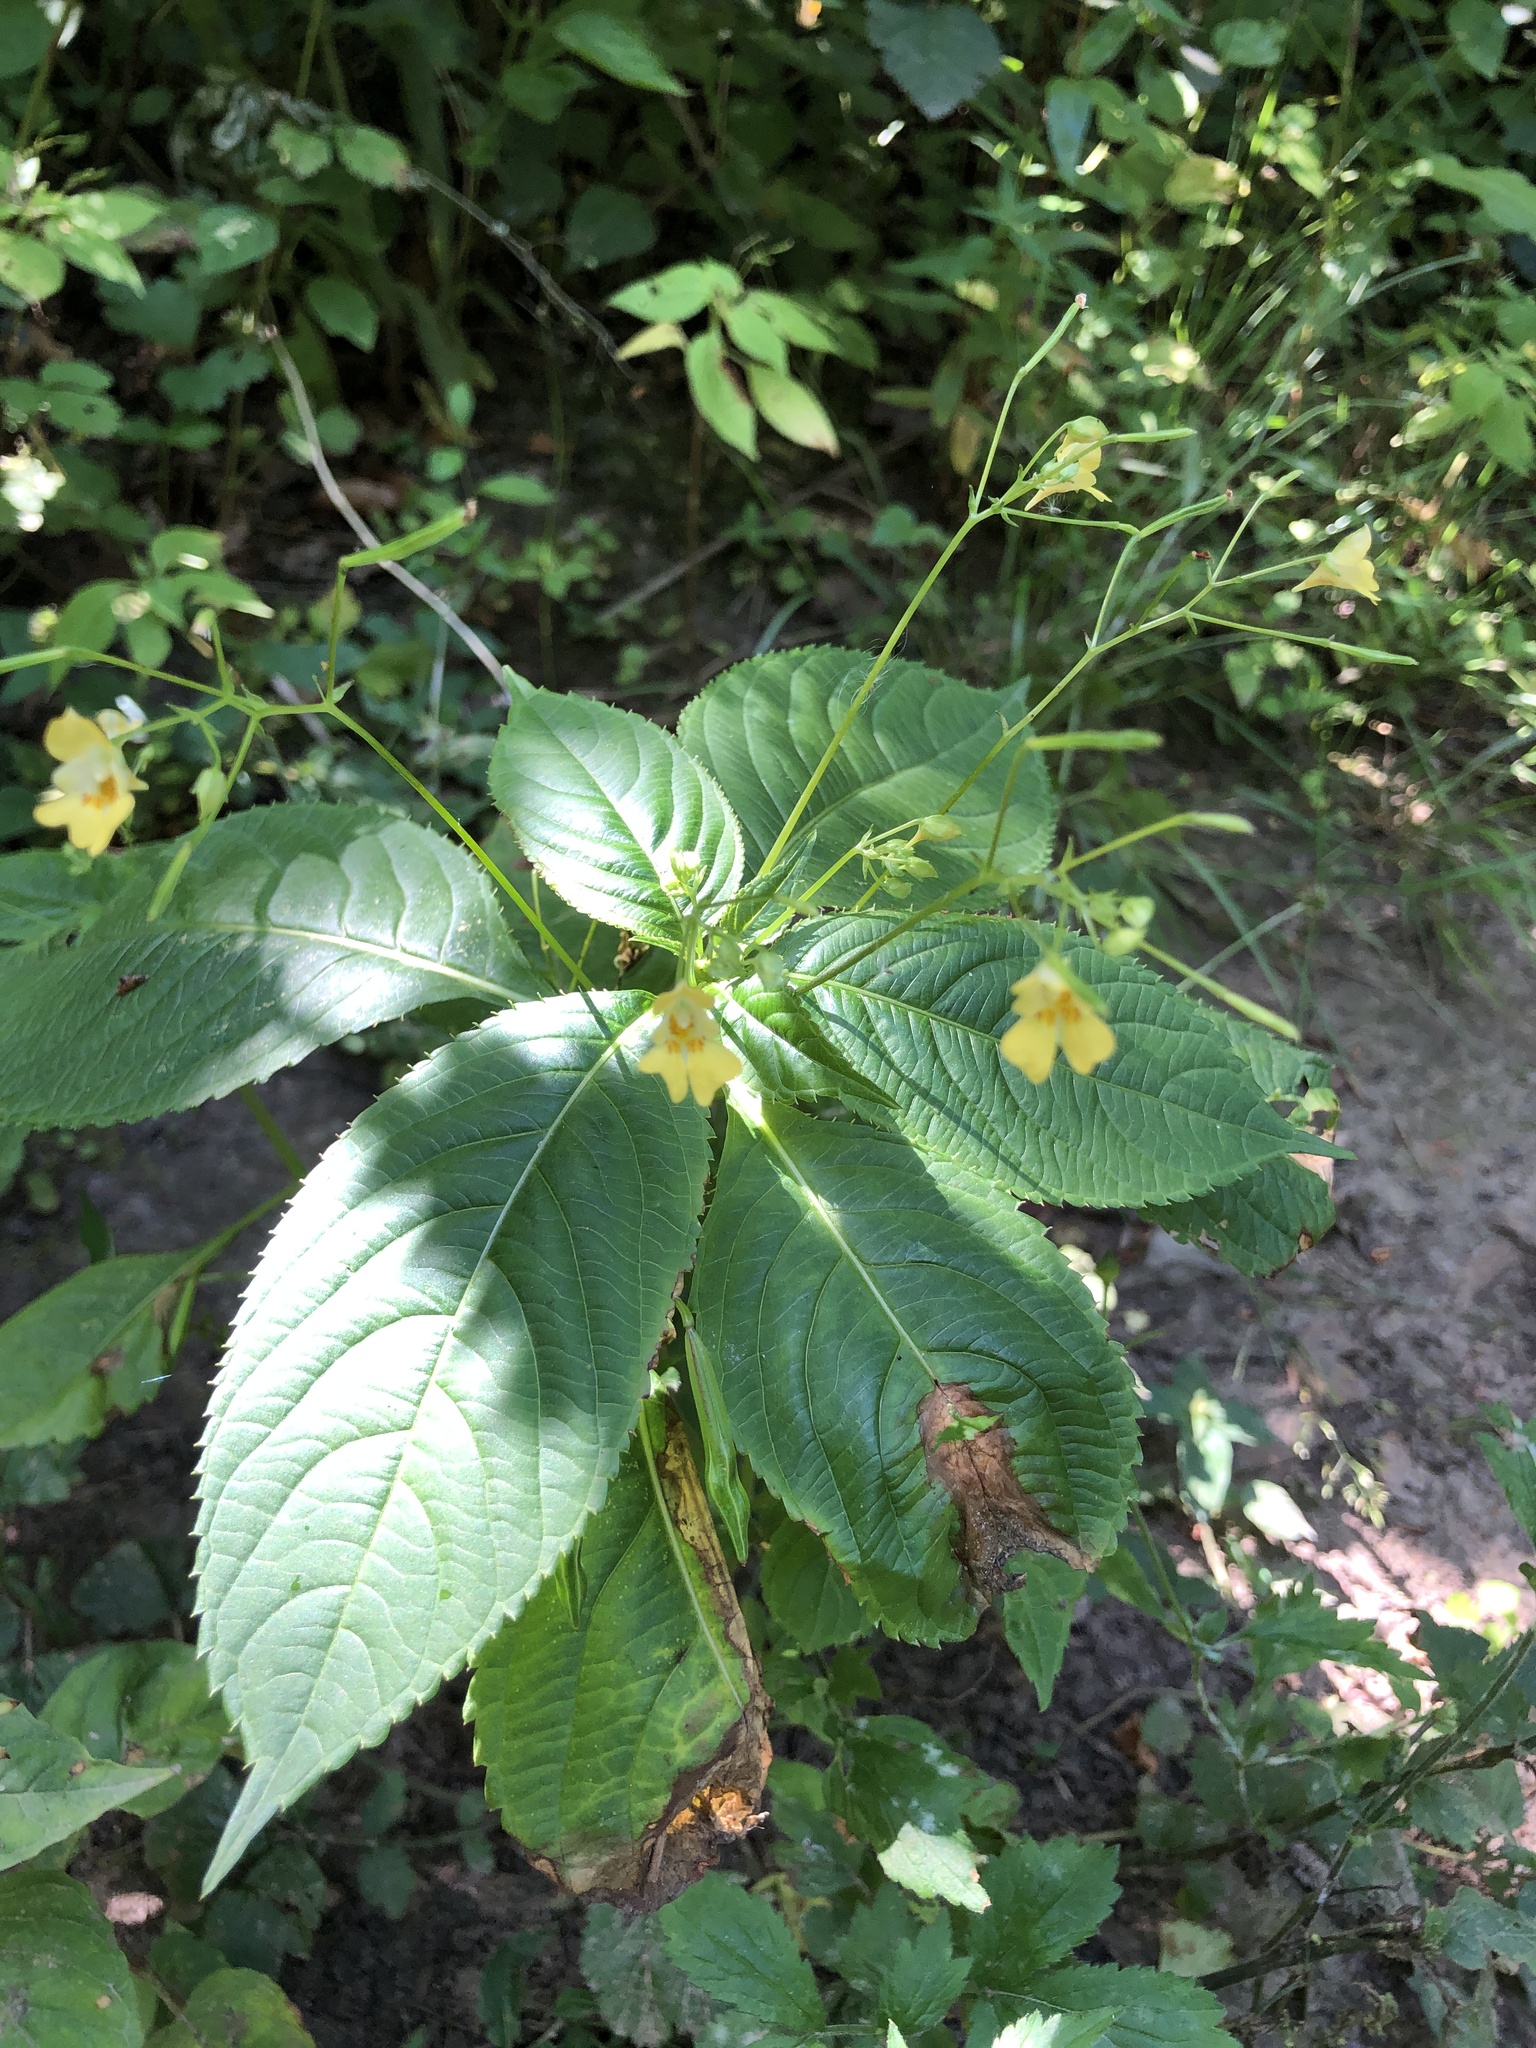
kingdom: Plantae
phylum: Tracheophyta
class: Magnoliopsida
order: Ericales
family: Balsaminaceae
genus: Impatiens
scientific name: Impatiens parviflora
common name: Small balsam
